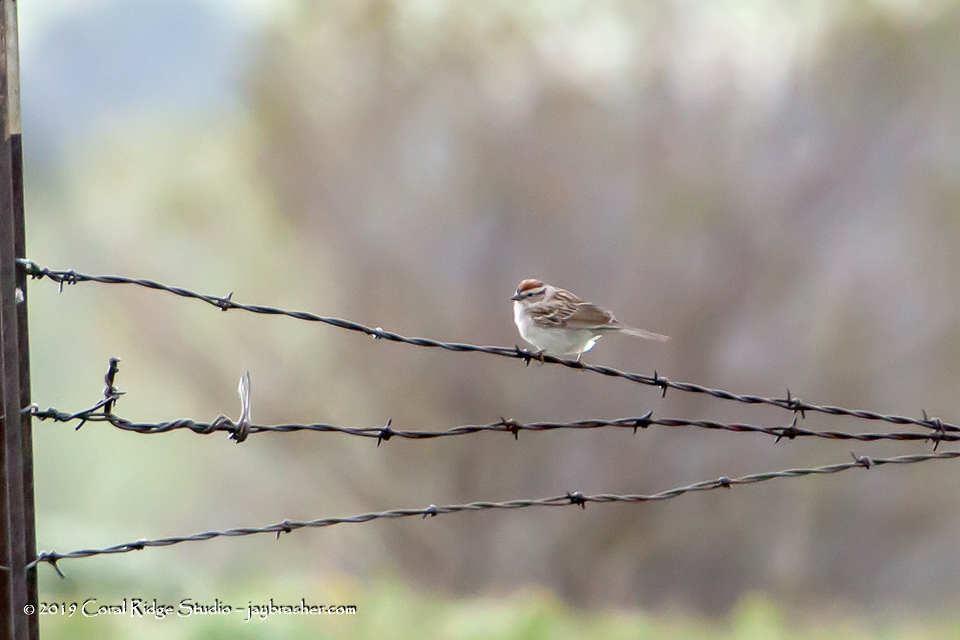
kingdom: Animalia
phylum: Chordata
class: Aves
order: Passeriformes
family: Passerellidae
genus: Spizella
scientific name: Spizella passerina
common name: Chipping sparrow
